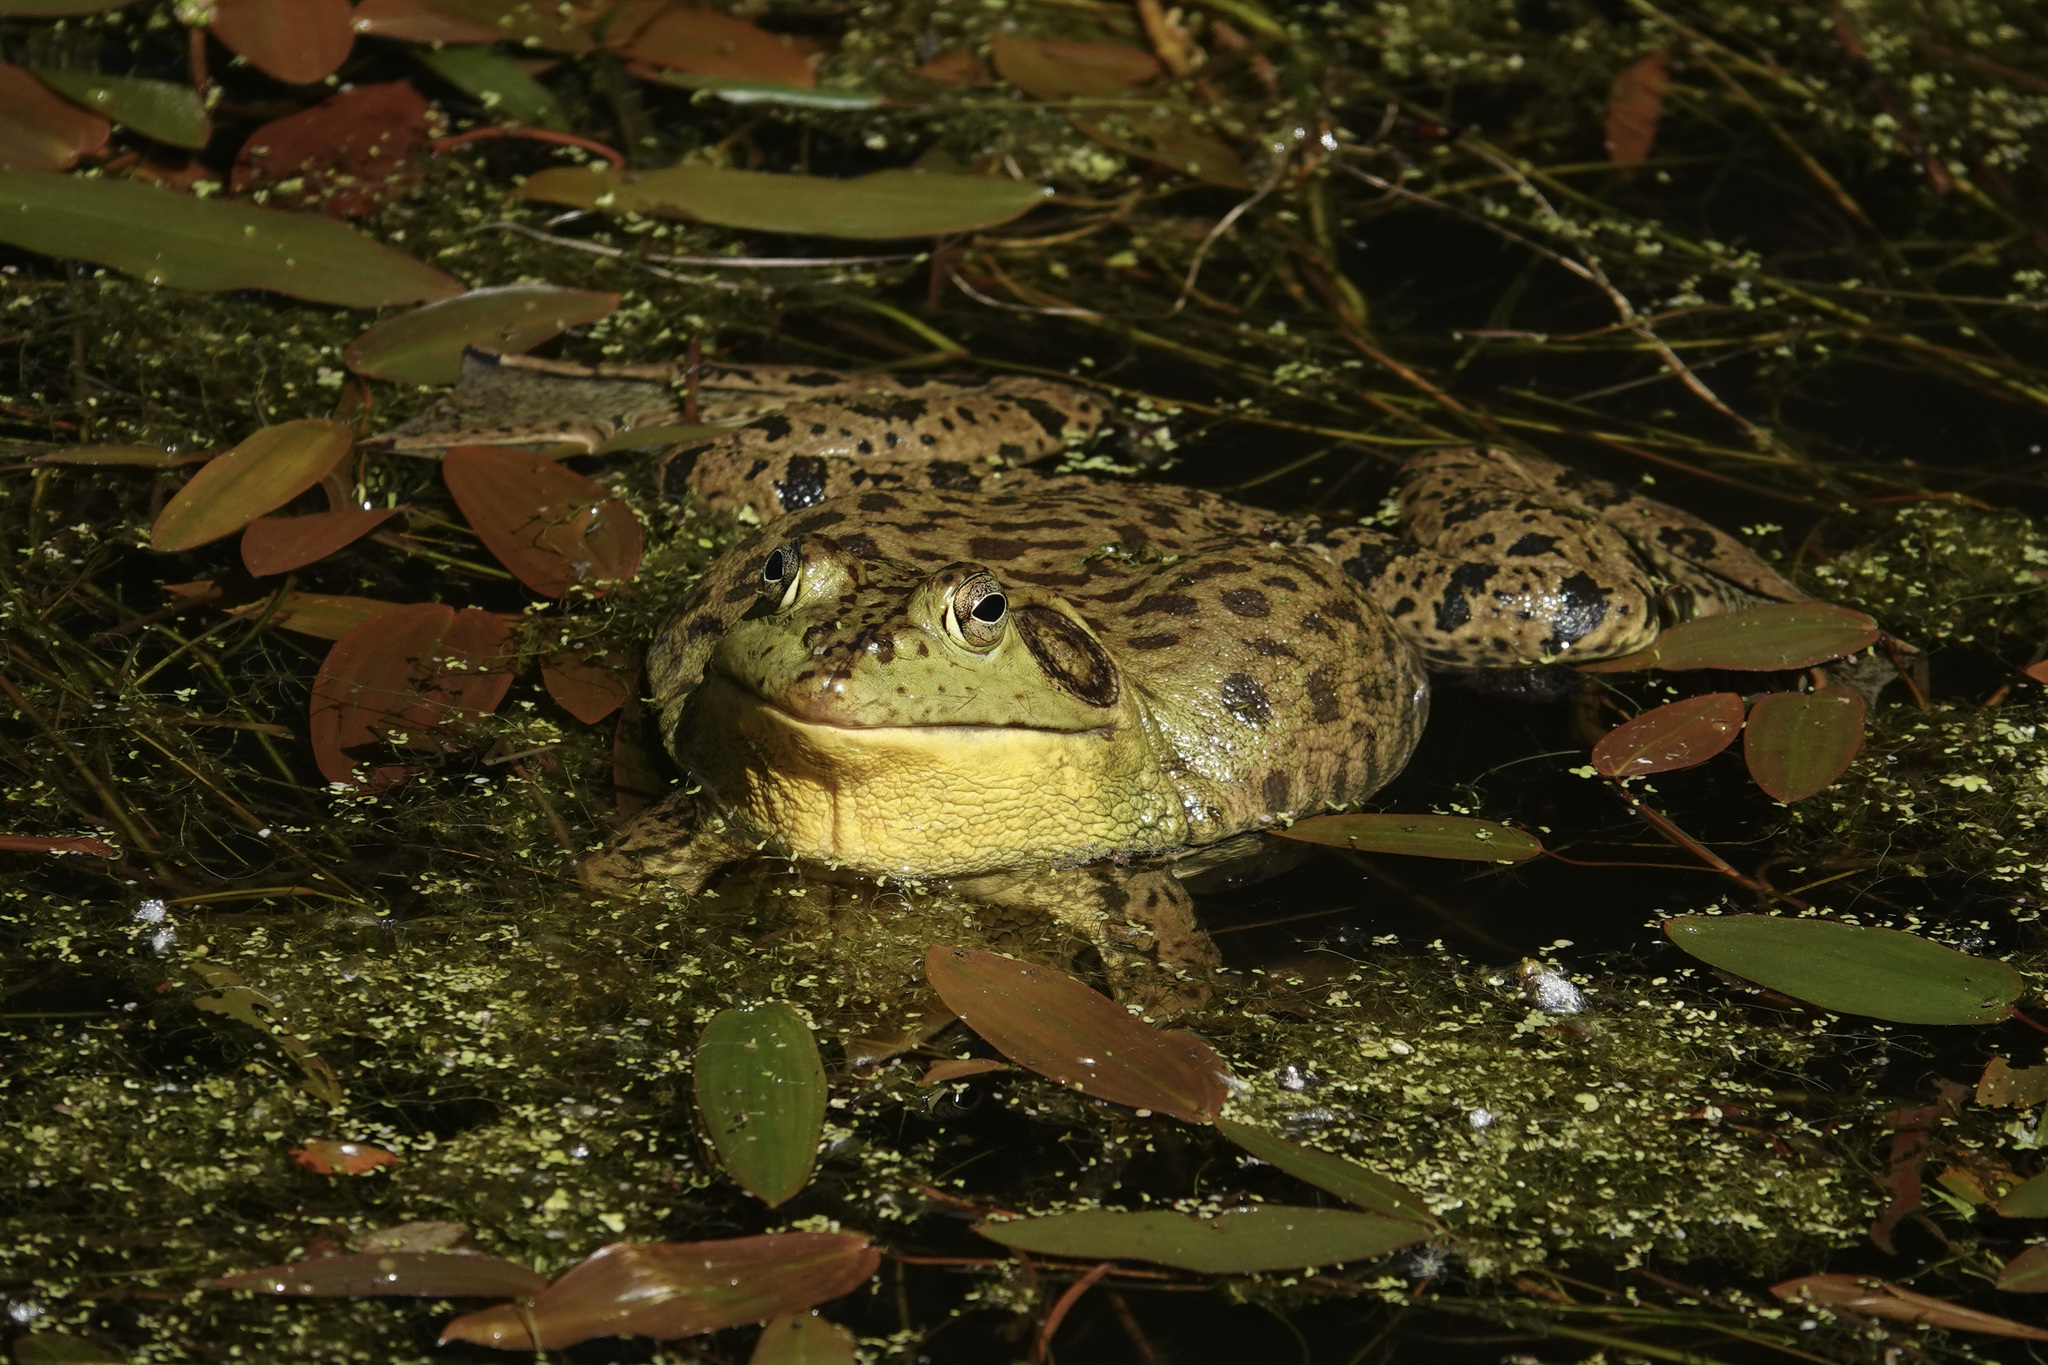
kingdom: Animalia
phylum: Chordata
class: Amphibia
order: Anura
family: Ranidae
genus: Lithobates
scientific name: Lithobates catesbeianus
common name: American bullfrog
